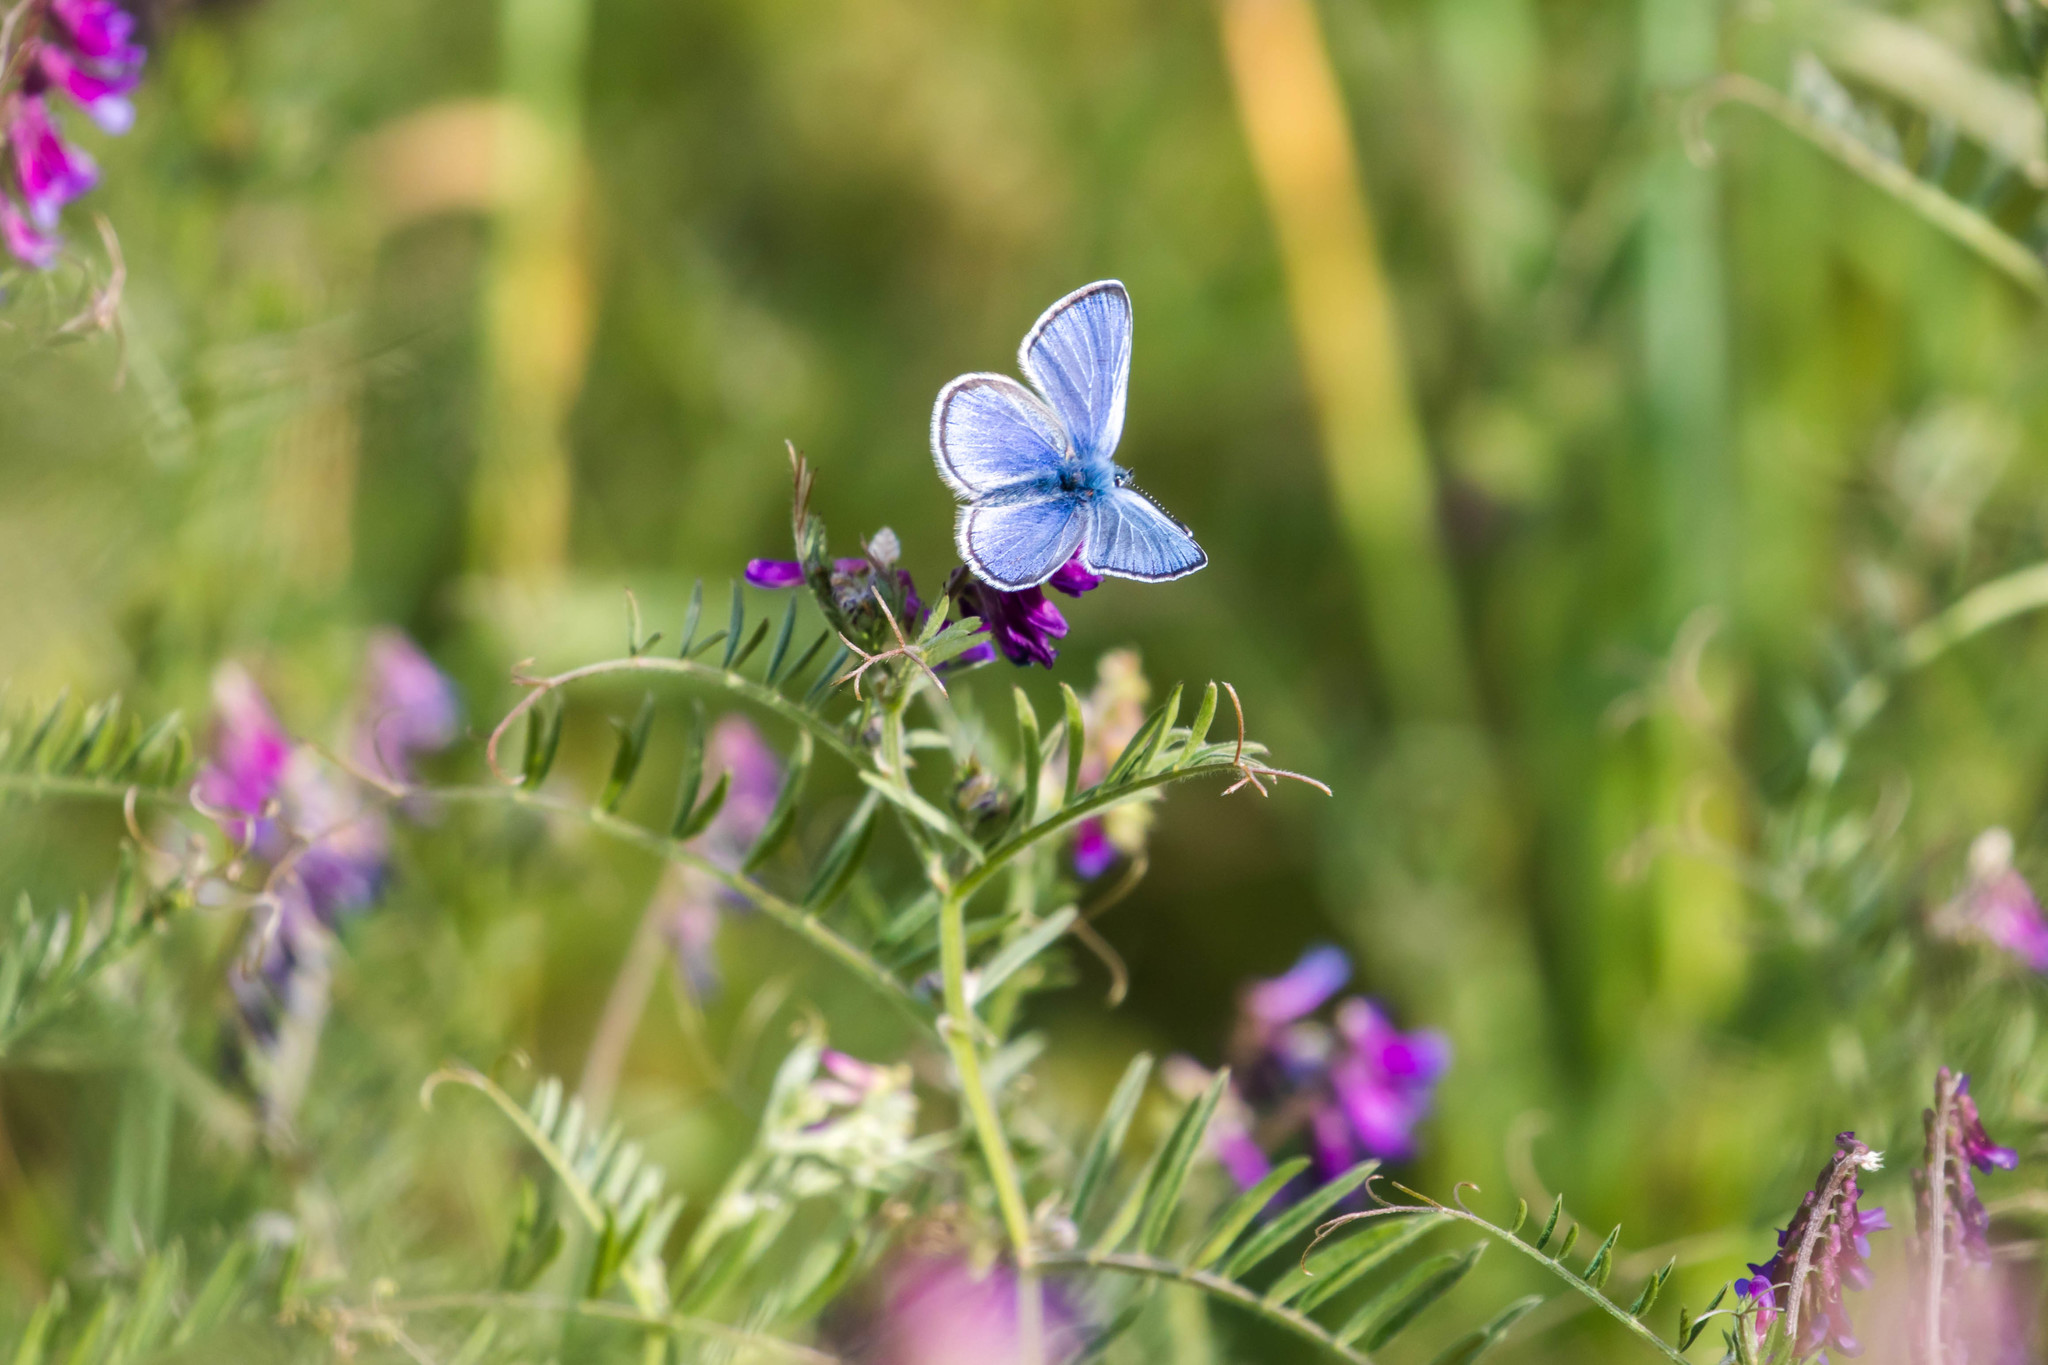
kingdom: Animalia
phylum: Arthropoda
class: Insecta
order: Lepidoptera
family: Lycaenidae
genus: Glaucopsyche
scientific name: Glaucopsyche lygdamus
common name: Silvery blue
